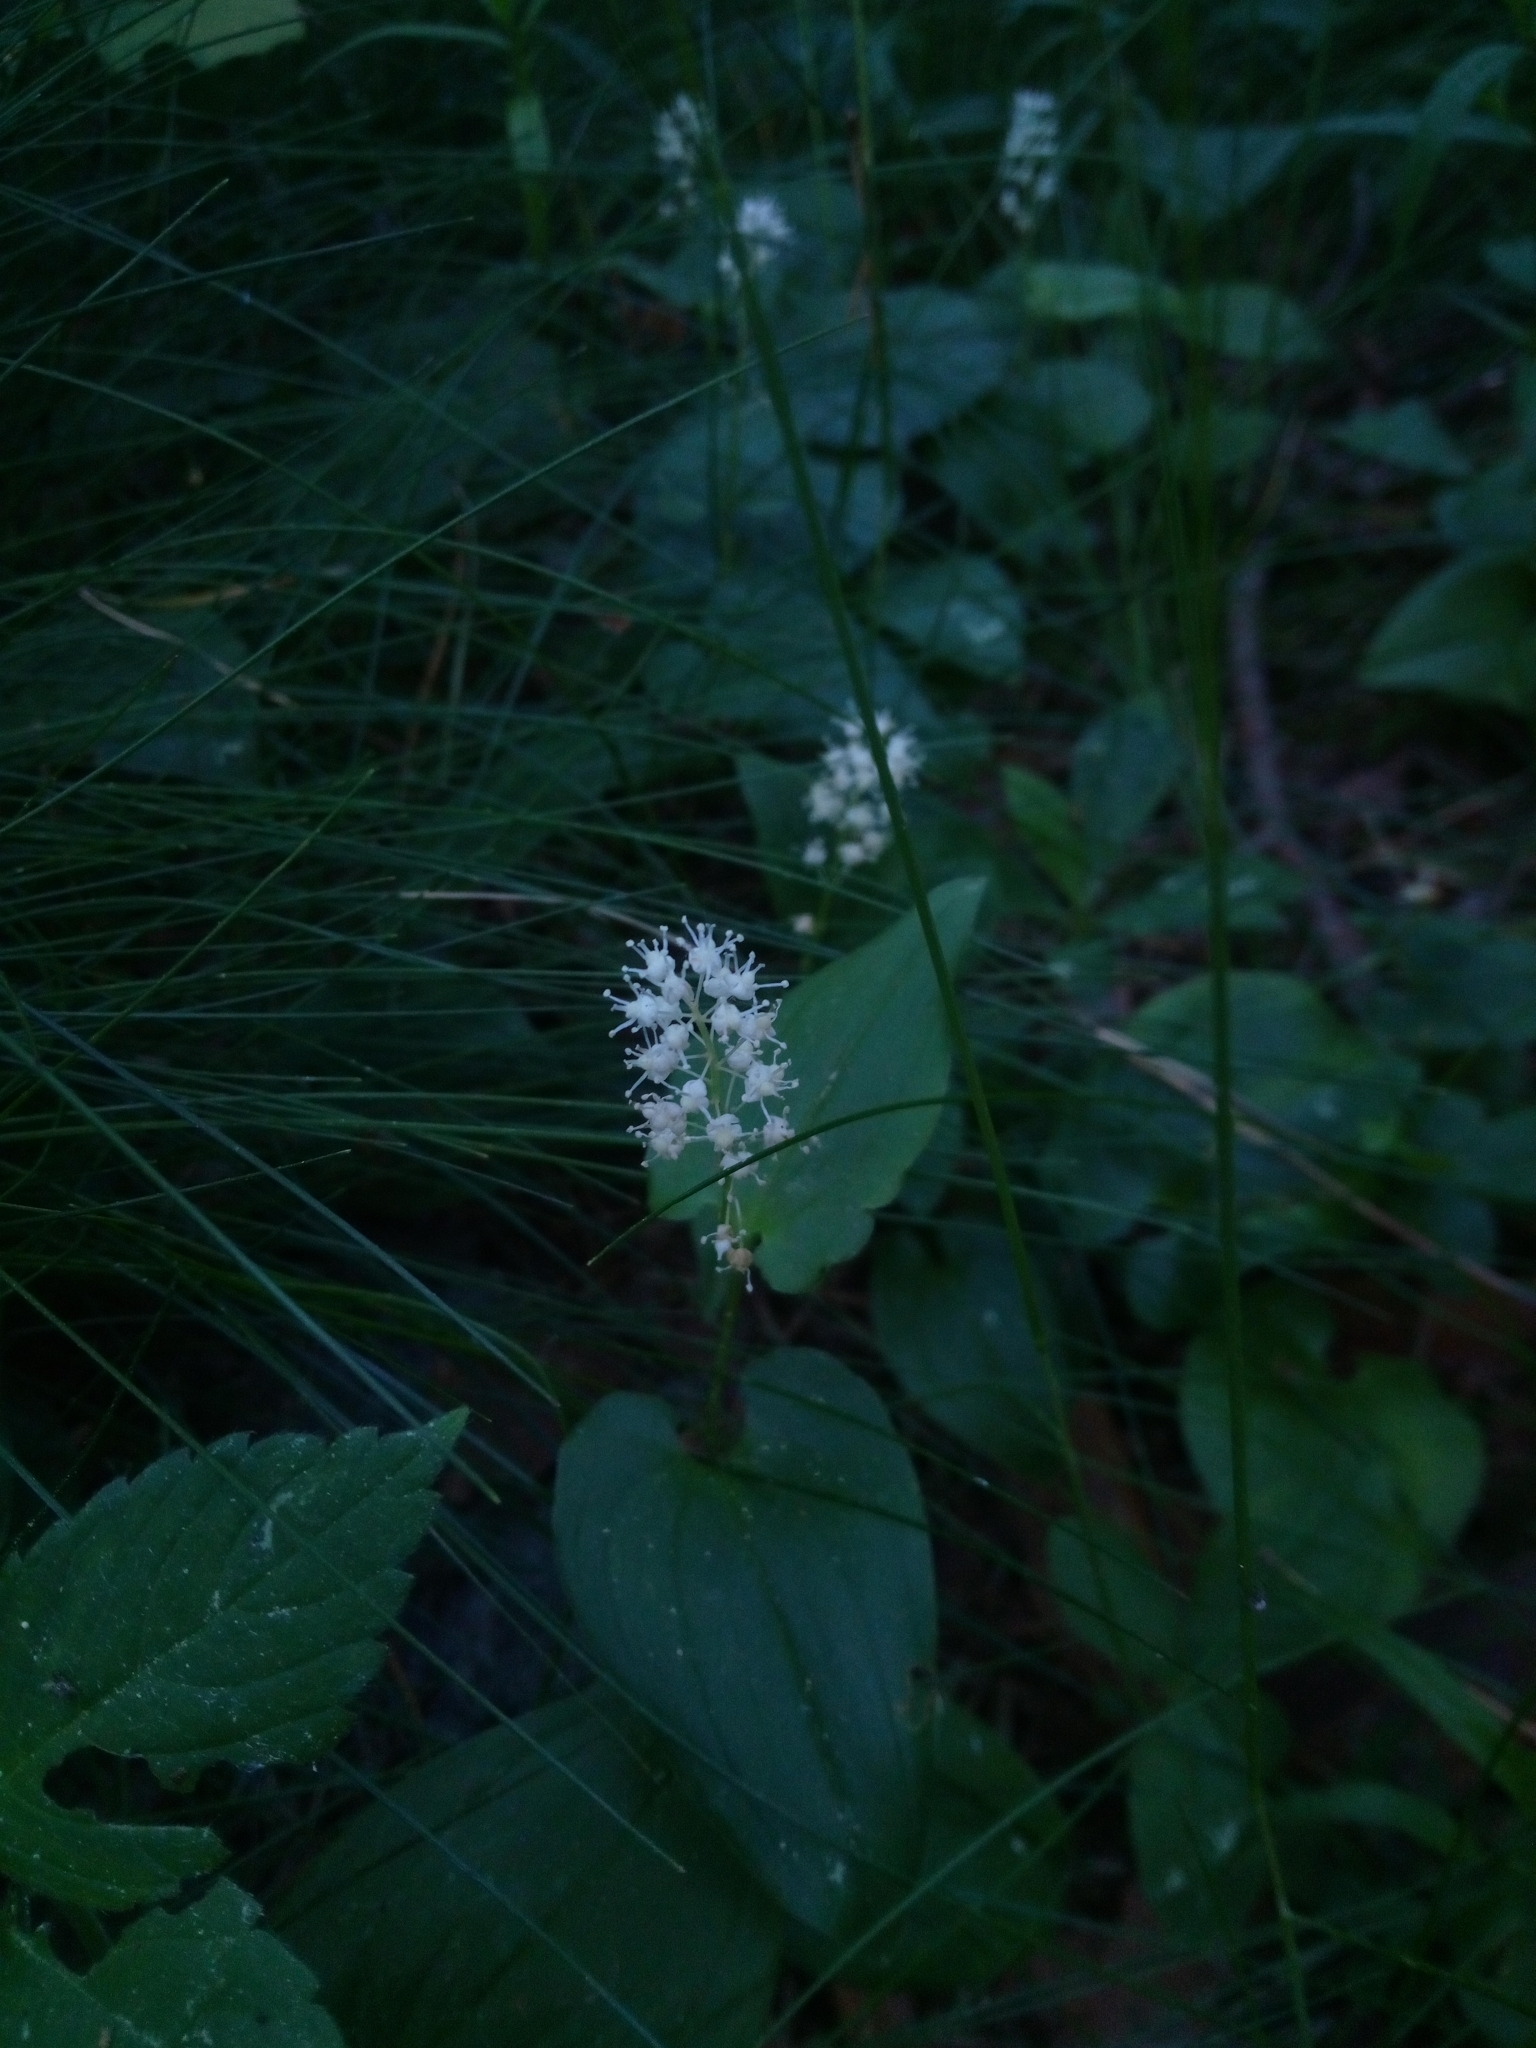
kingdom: Plantae
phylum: Tracheophyta
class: Liliopsida
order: Asparagales
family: Asparagaceae
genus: Maianthemum
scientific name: Maianthemum bifolium
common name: May lily
